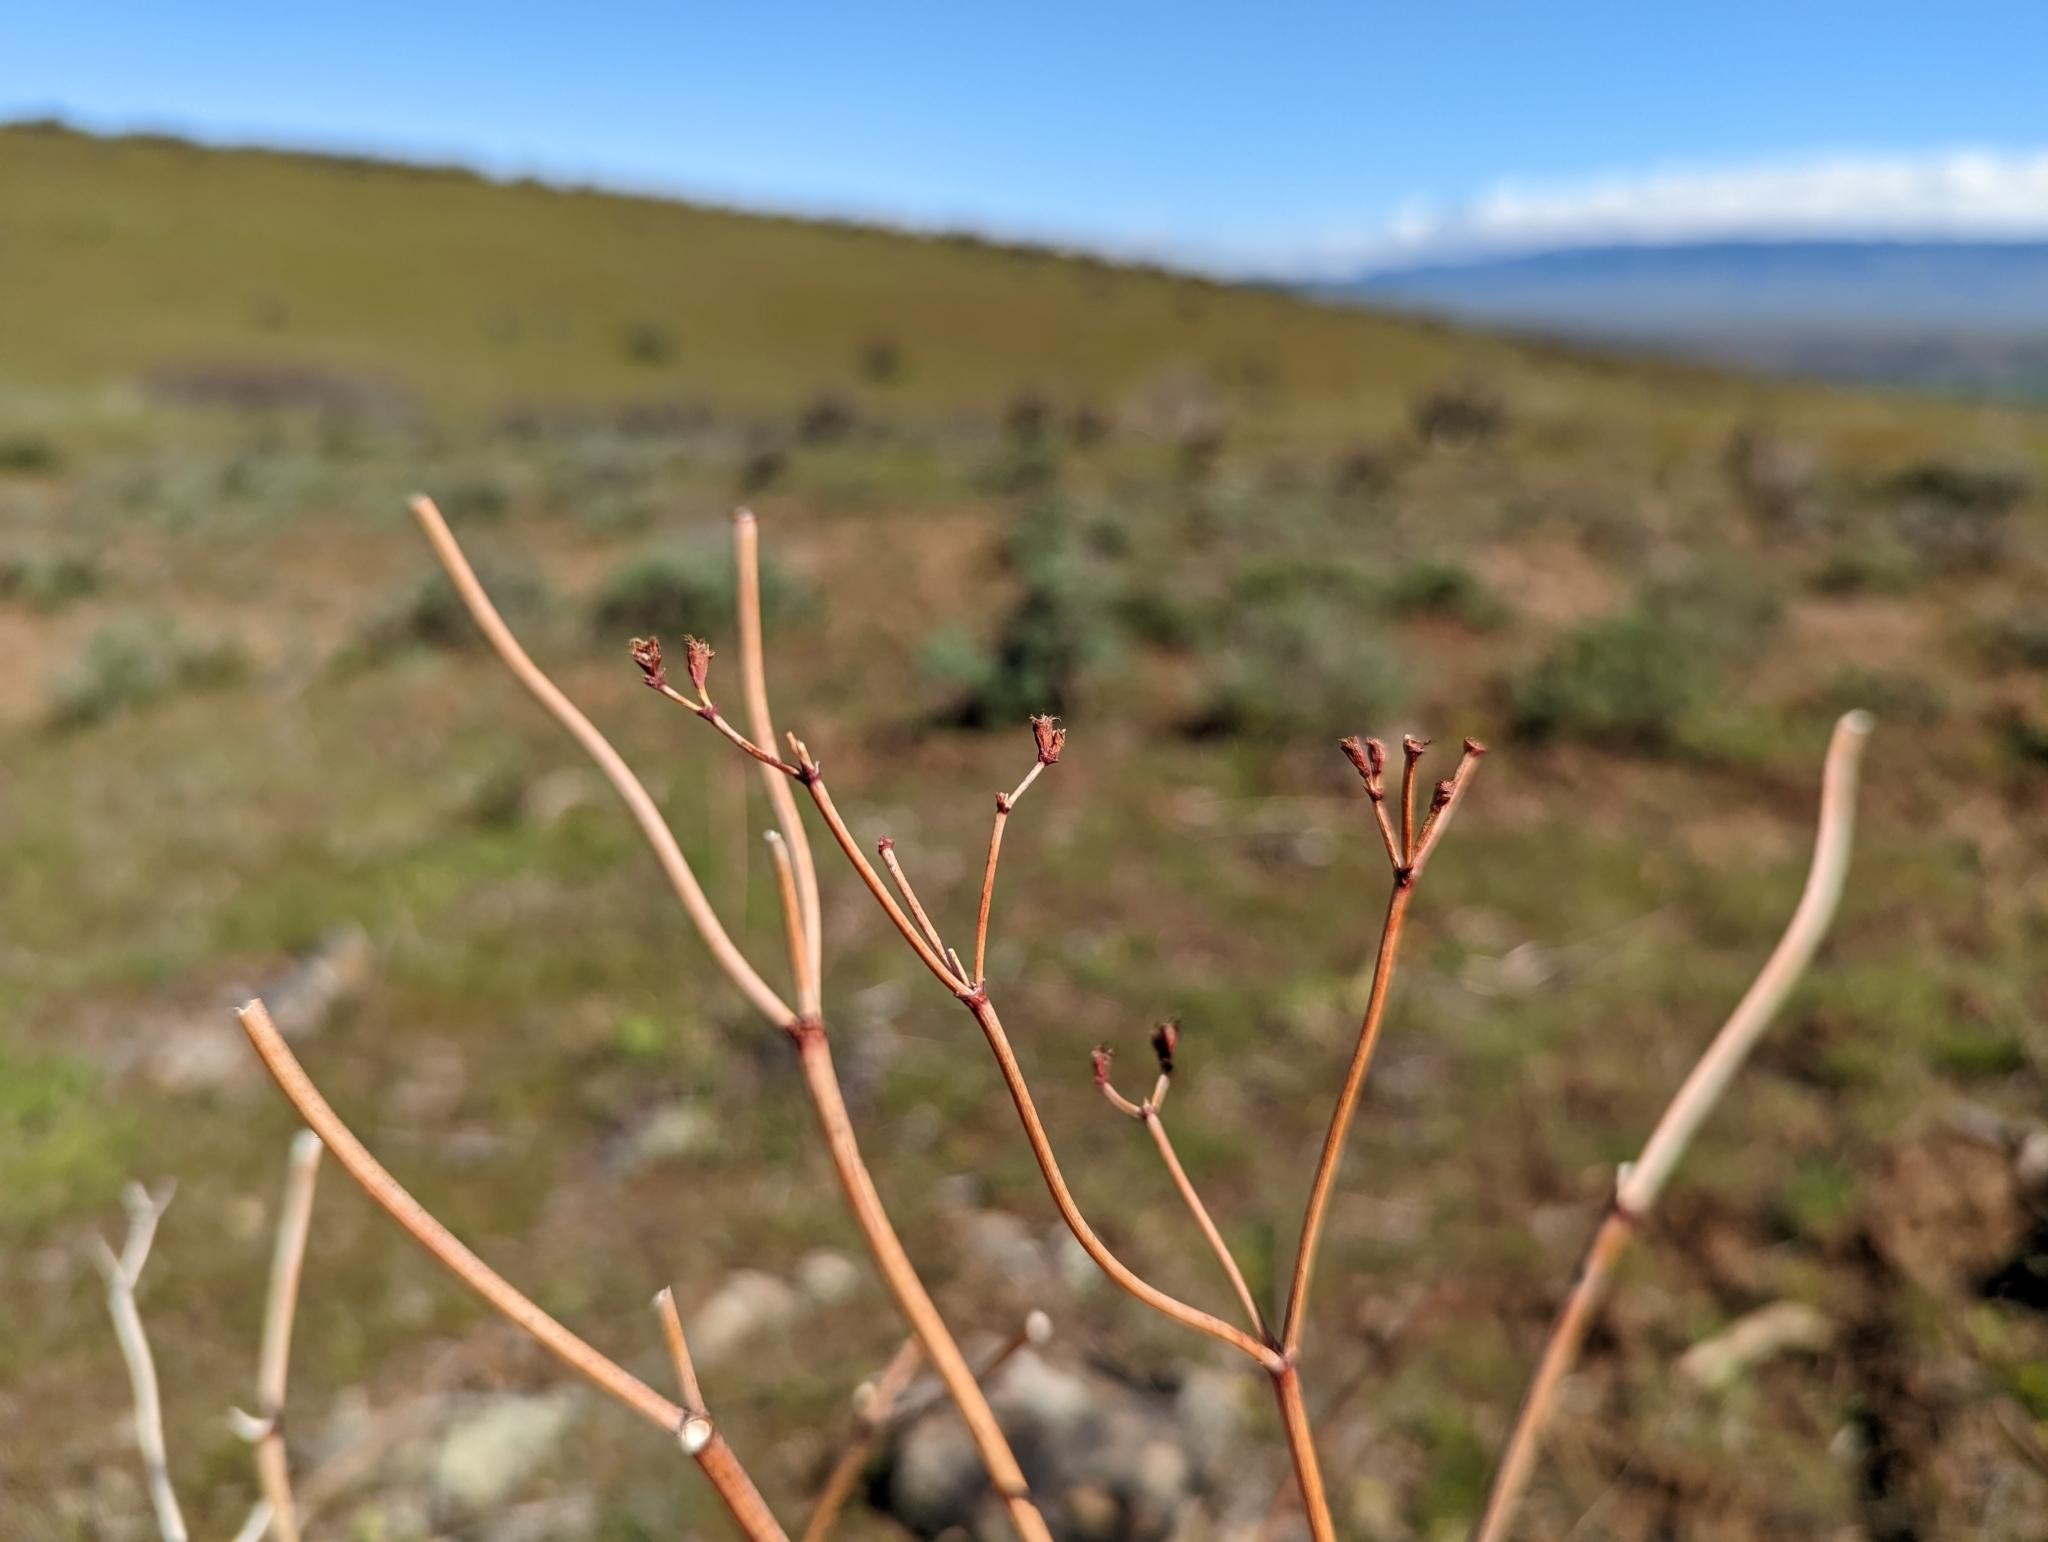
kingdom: Plantae
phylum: Tracheophyta
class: Magnoliopsida
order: Caryophyllales
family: Polygonaceae
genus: Eriogonum
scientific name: Eriogonum elatum
